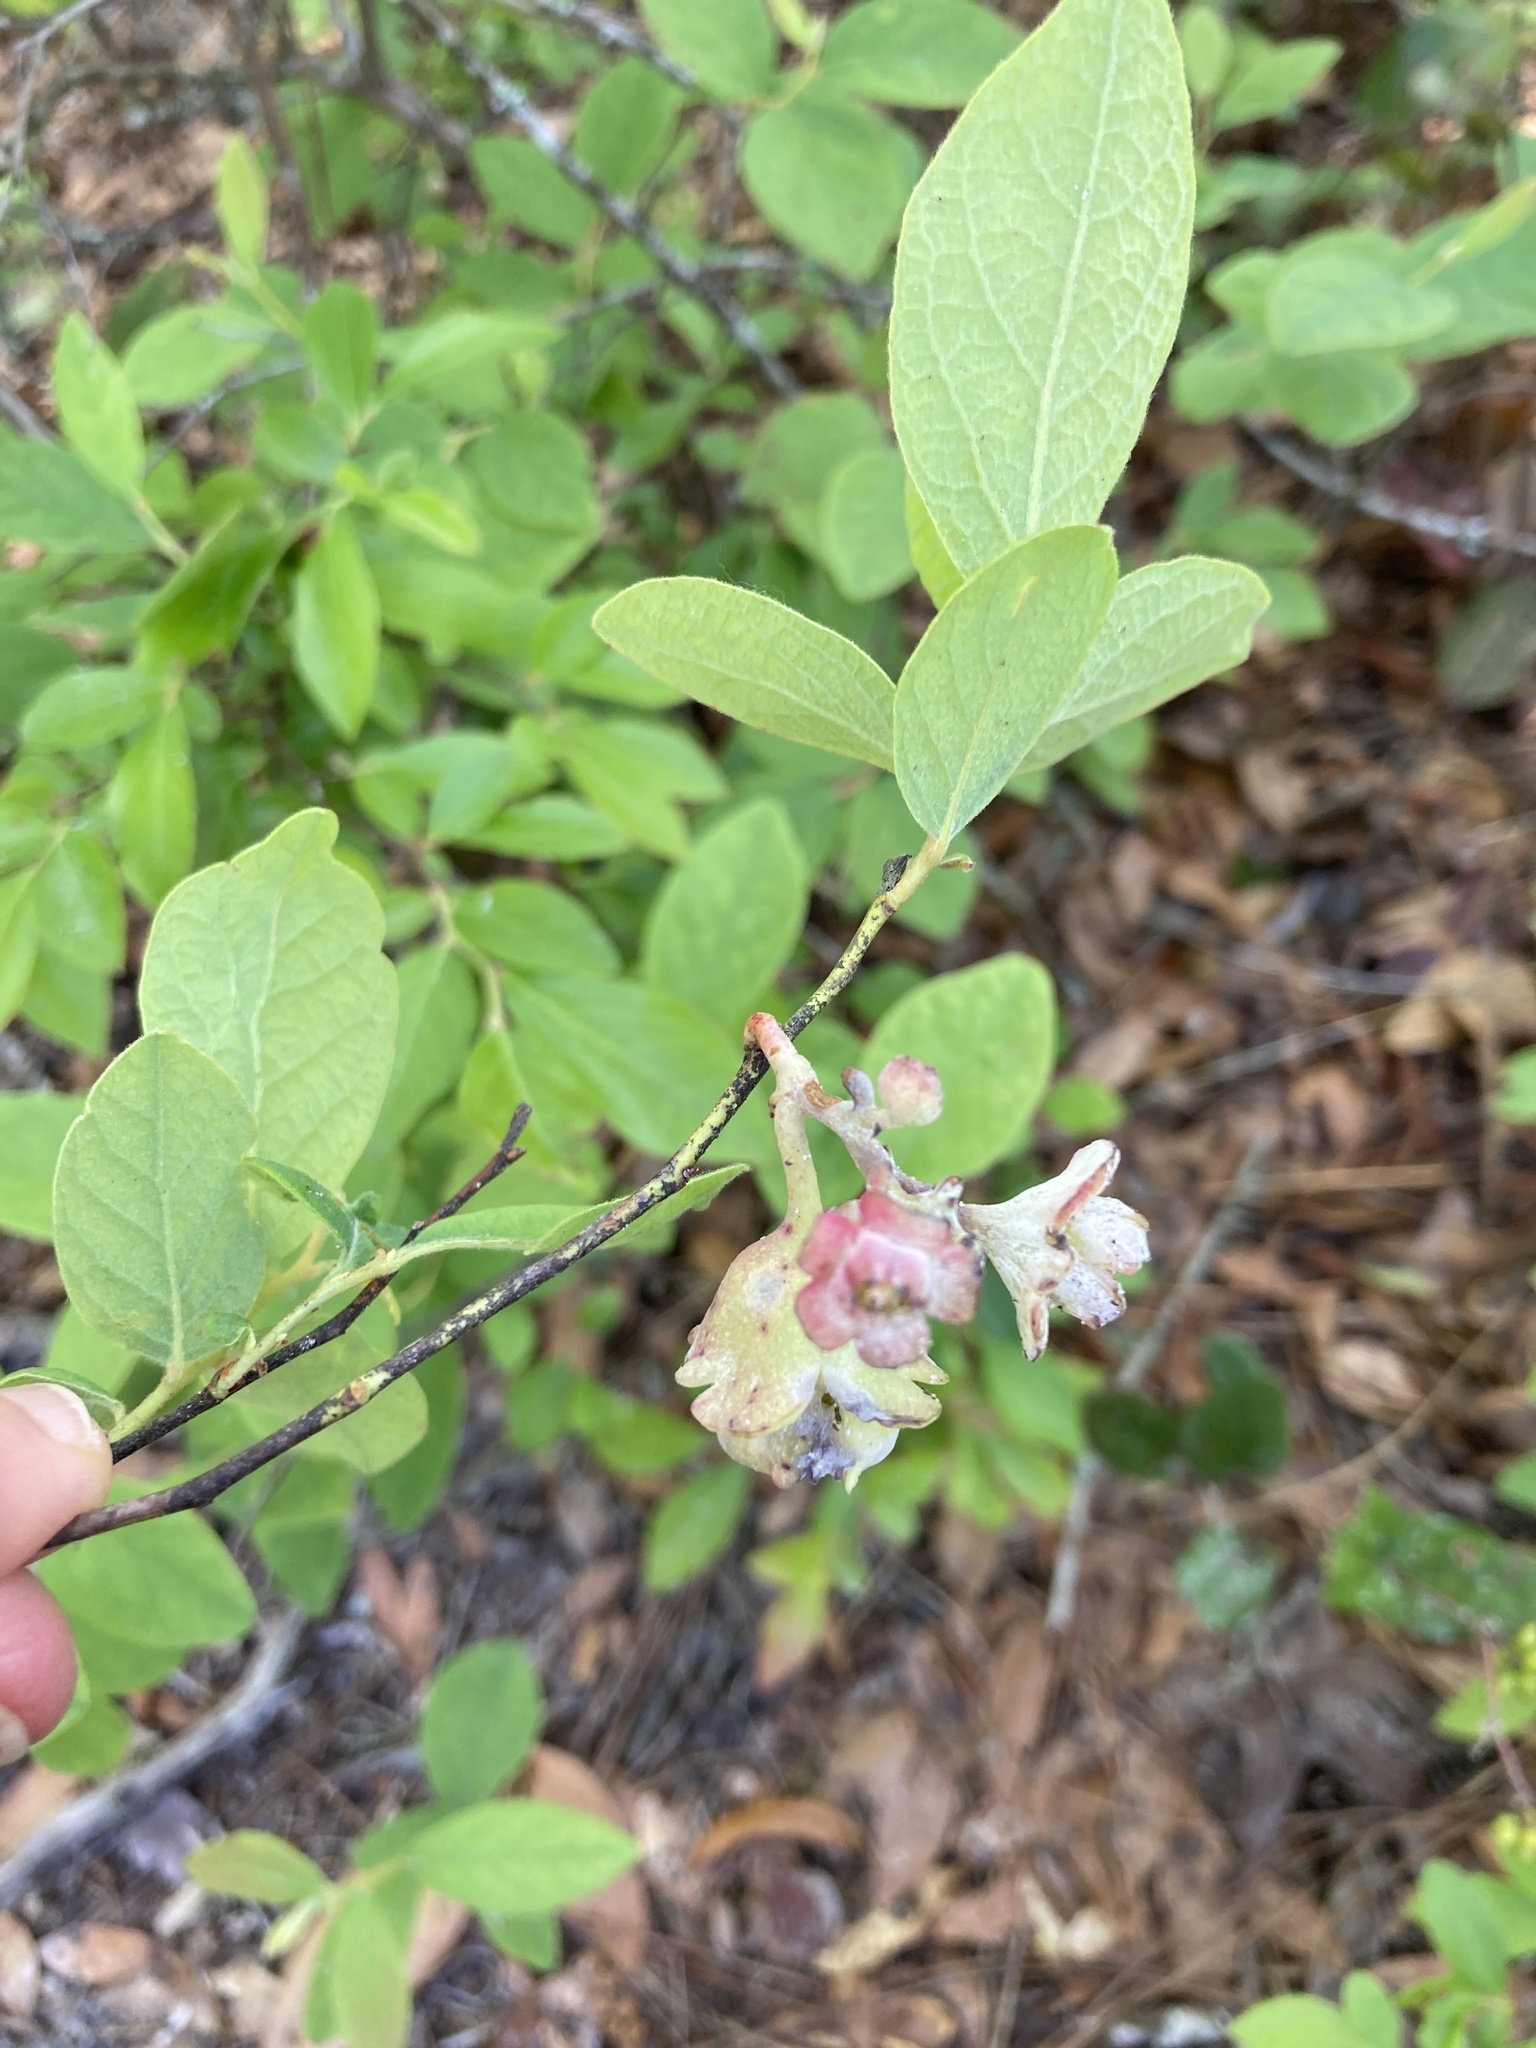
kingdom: Plantae
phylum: Tracheophyta
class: Magnoliopsida
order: Ericales
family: Ericaceae
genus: Gaylussacia
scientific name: Gaylussacia tomentosa
